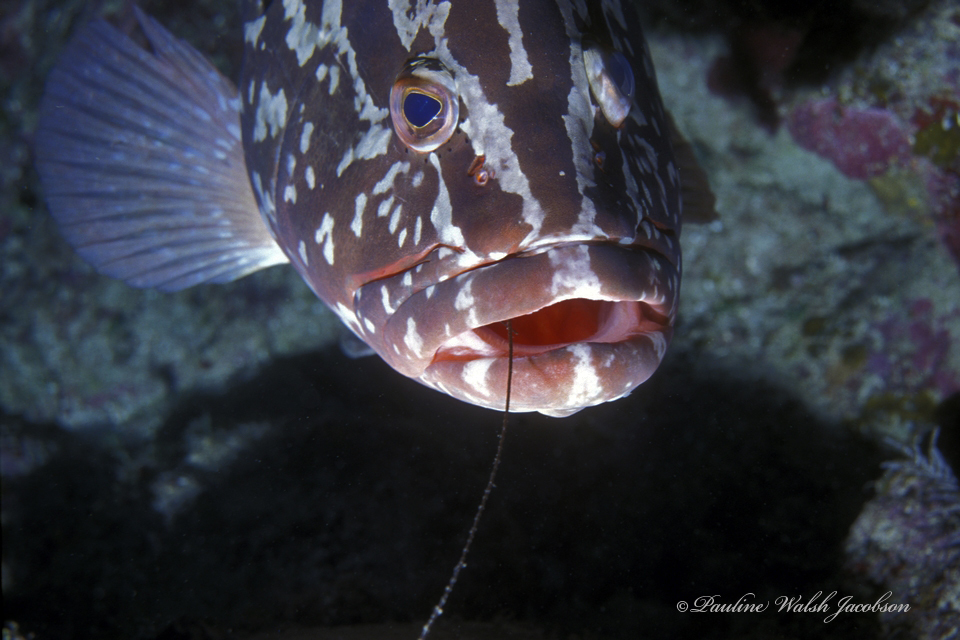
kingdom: Animalia
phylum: Chordata
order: Perciformes
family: Serranidae
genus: Epinephelus
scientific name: Epinephelus striatus
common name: Nassau grouper
